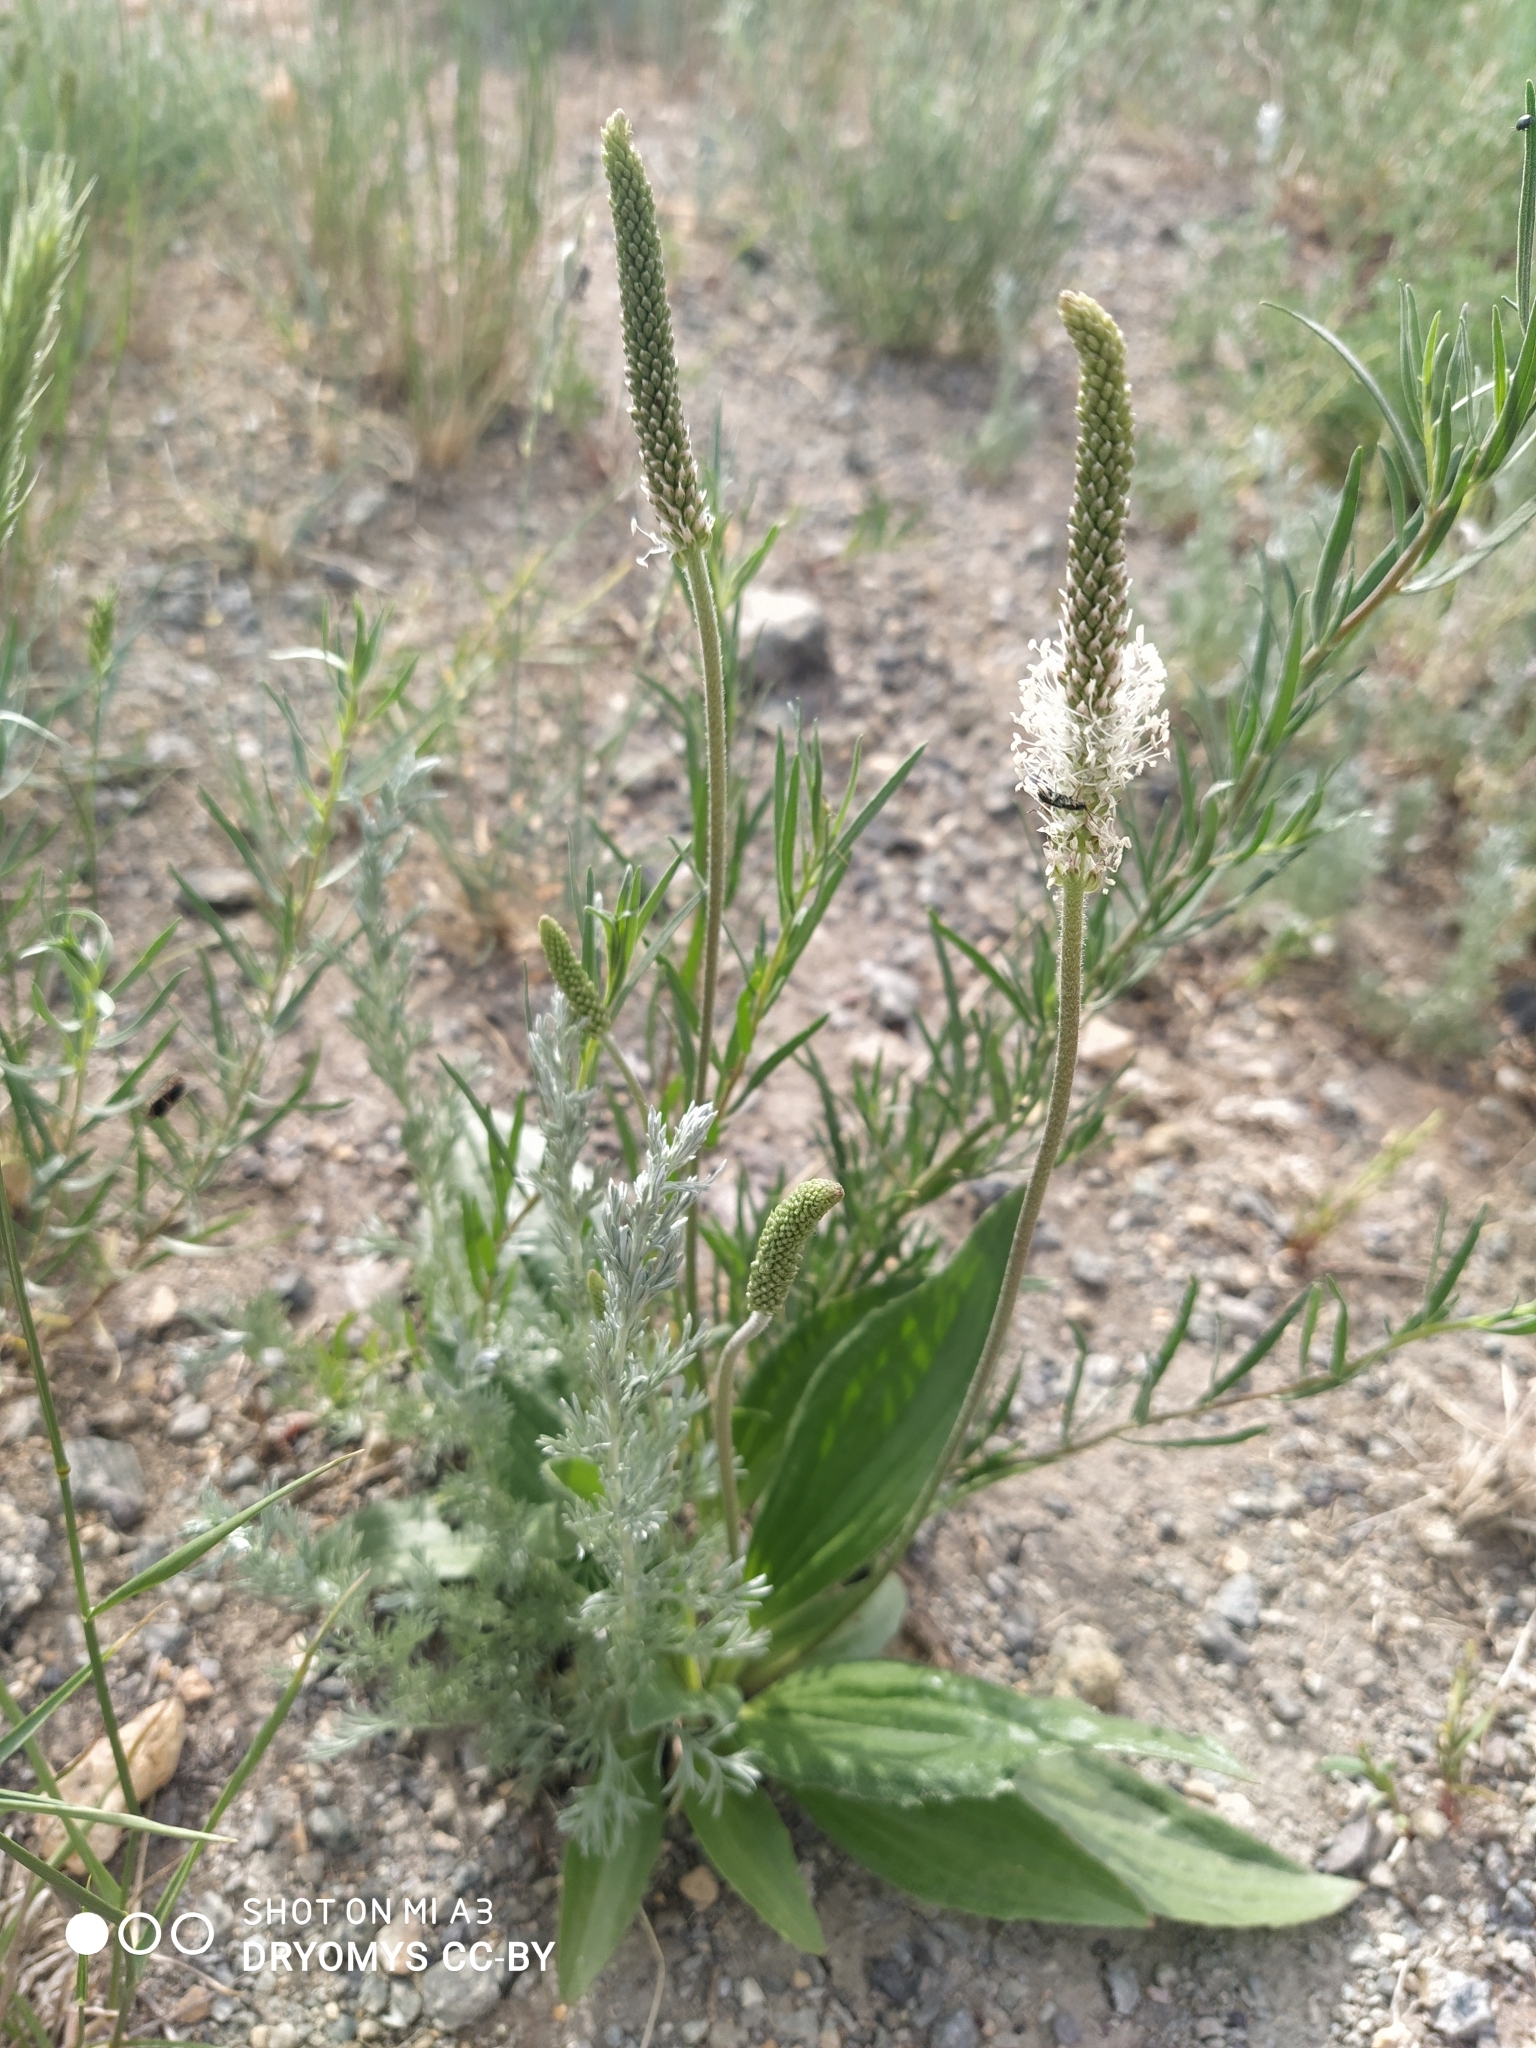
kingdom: Plantae
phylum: Tracheophyta
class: Magnoliopsida
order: Lamiales
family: Plantaginaceae
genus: Plantago
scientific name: Plantago media
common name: Hoary plantain
